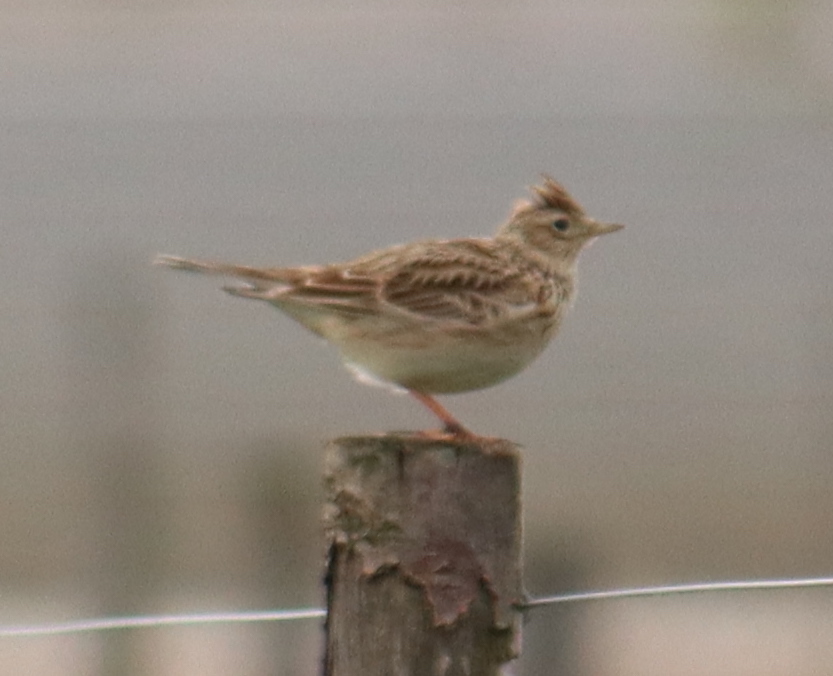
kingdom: Animalia
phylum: Chordata
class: Aves
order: Passeriformes
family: Alaudidae
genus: Alauda
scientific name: Alauda arvensis
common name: Eurasian skylark
